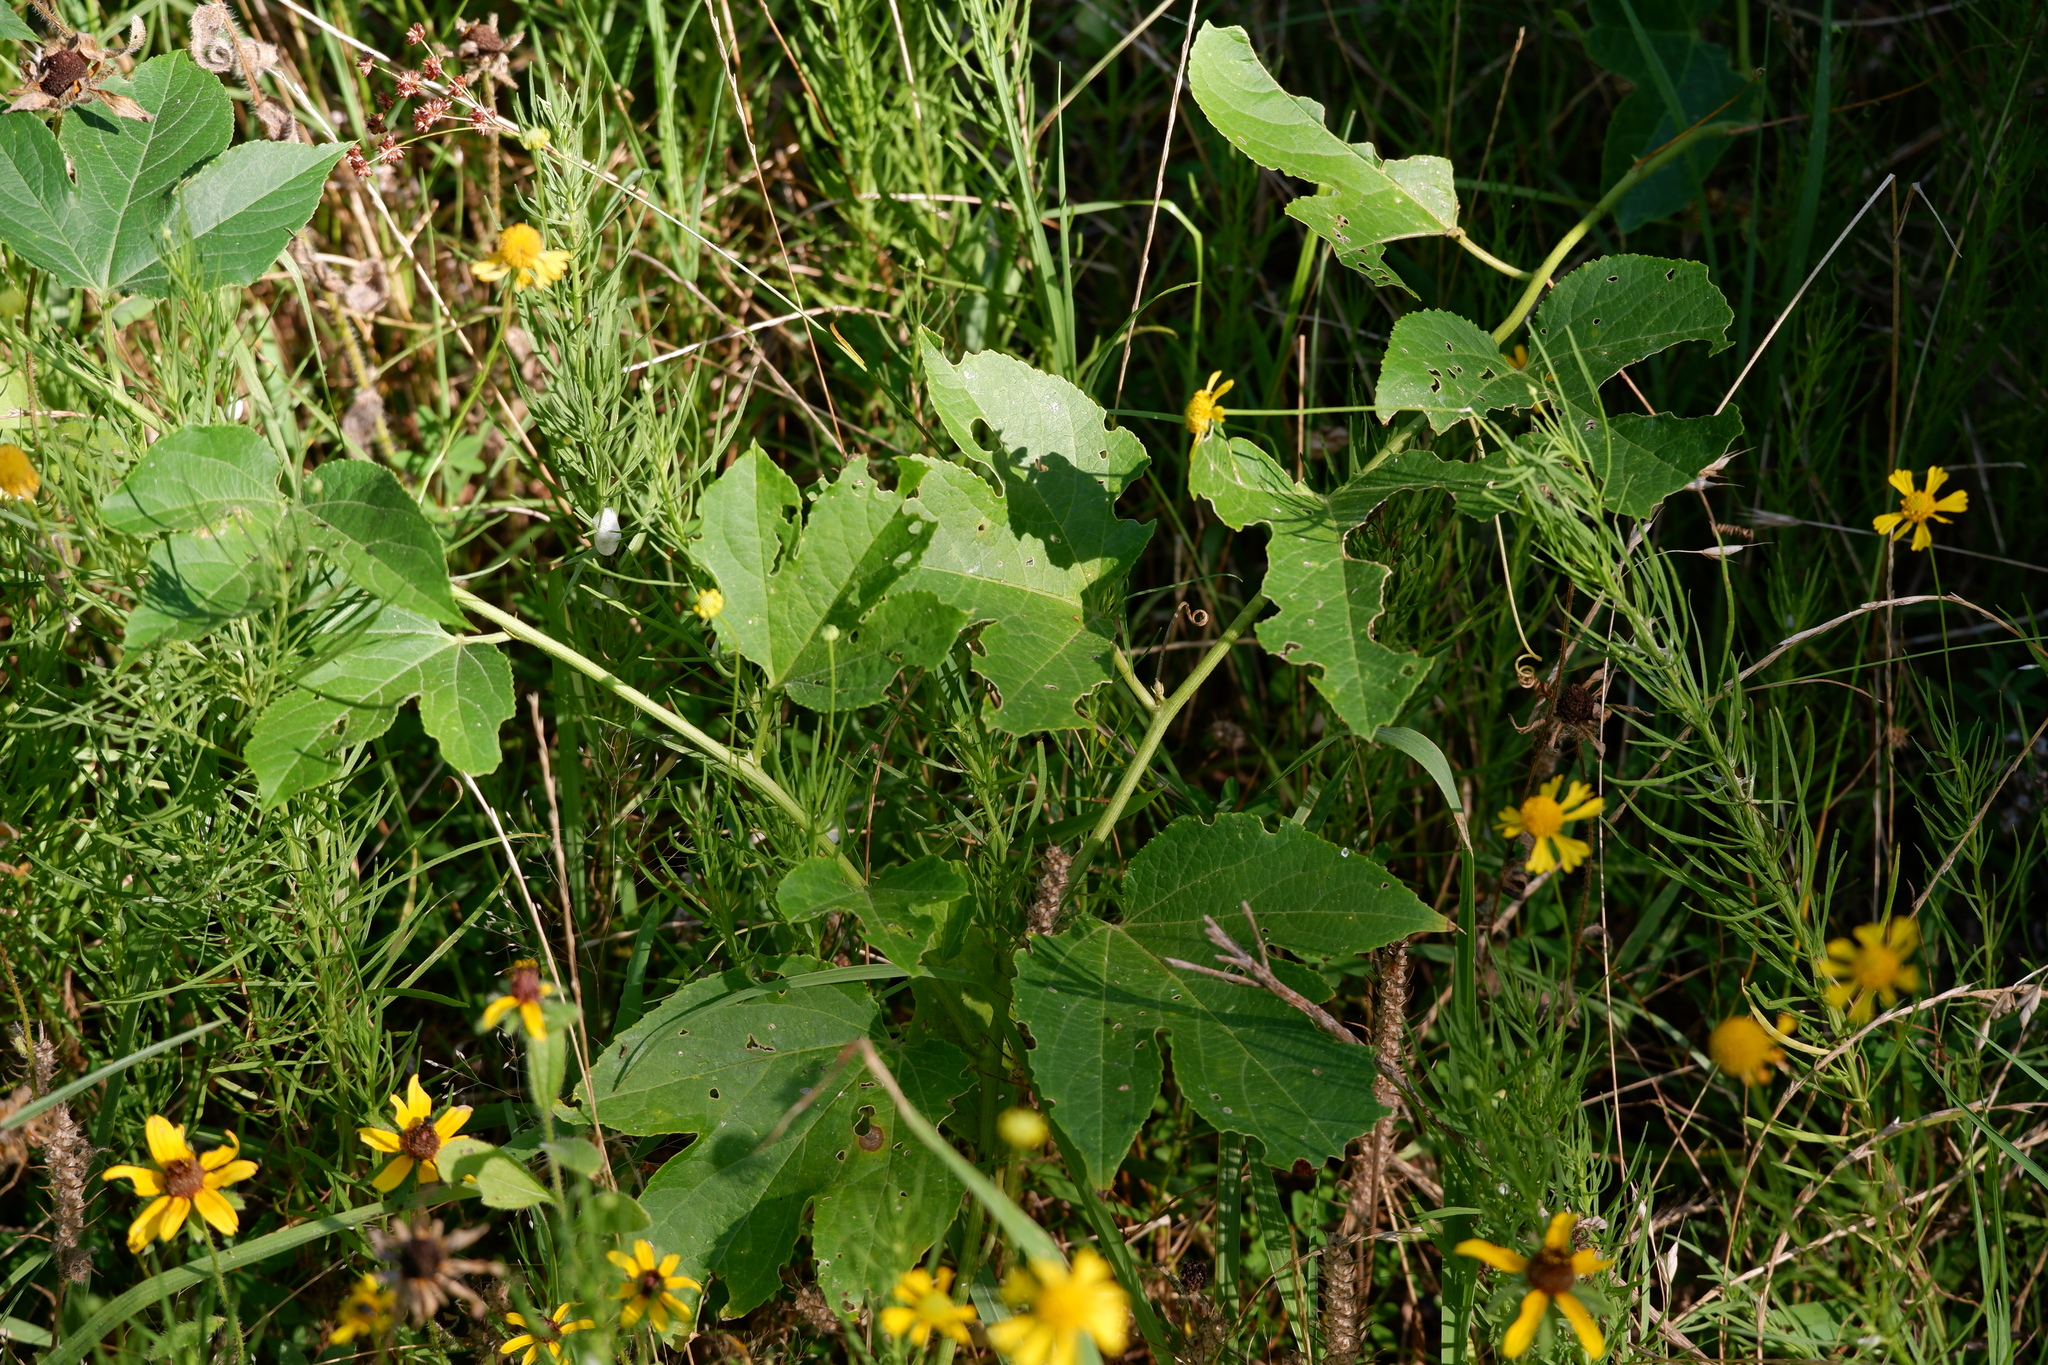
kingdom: Plantae
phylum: Tracheophyta
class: Magnoliopsida
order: Malpighiales
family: Passifloraceae
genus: Passiflora
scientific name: Passiflora incarnata
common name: Apricot-vine
